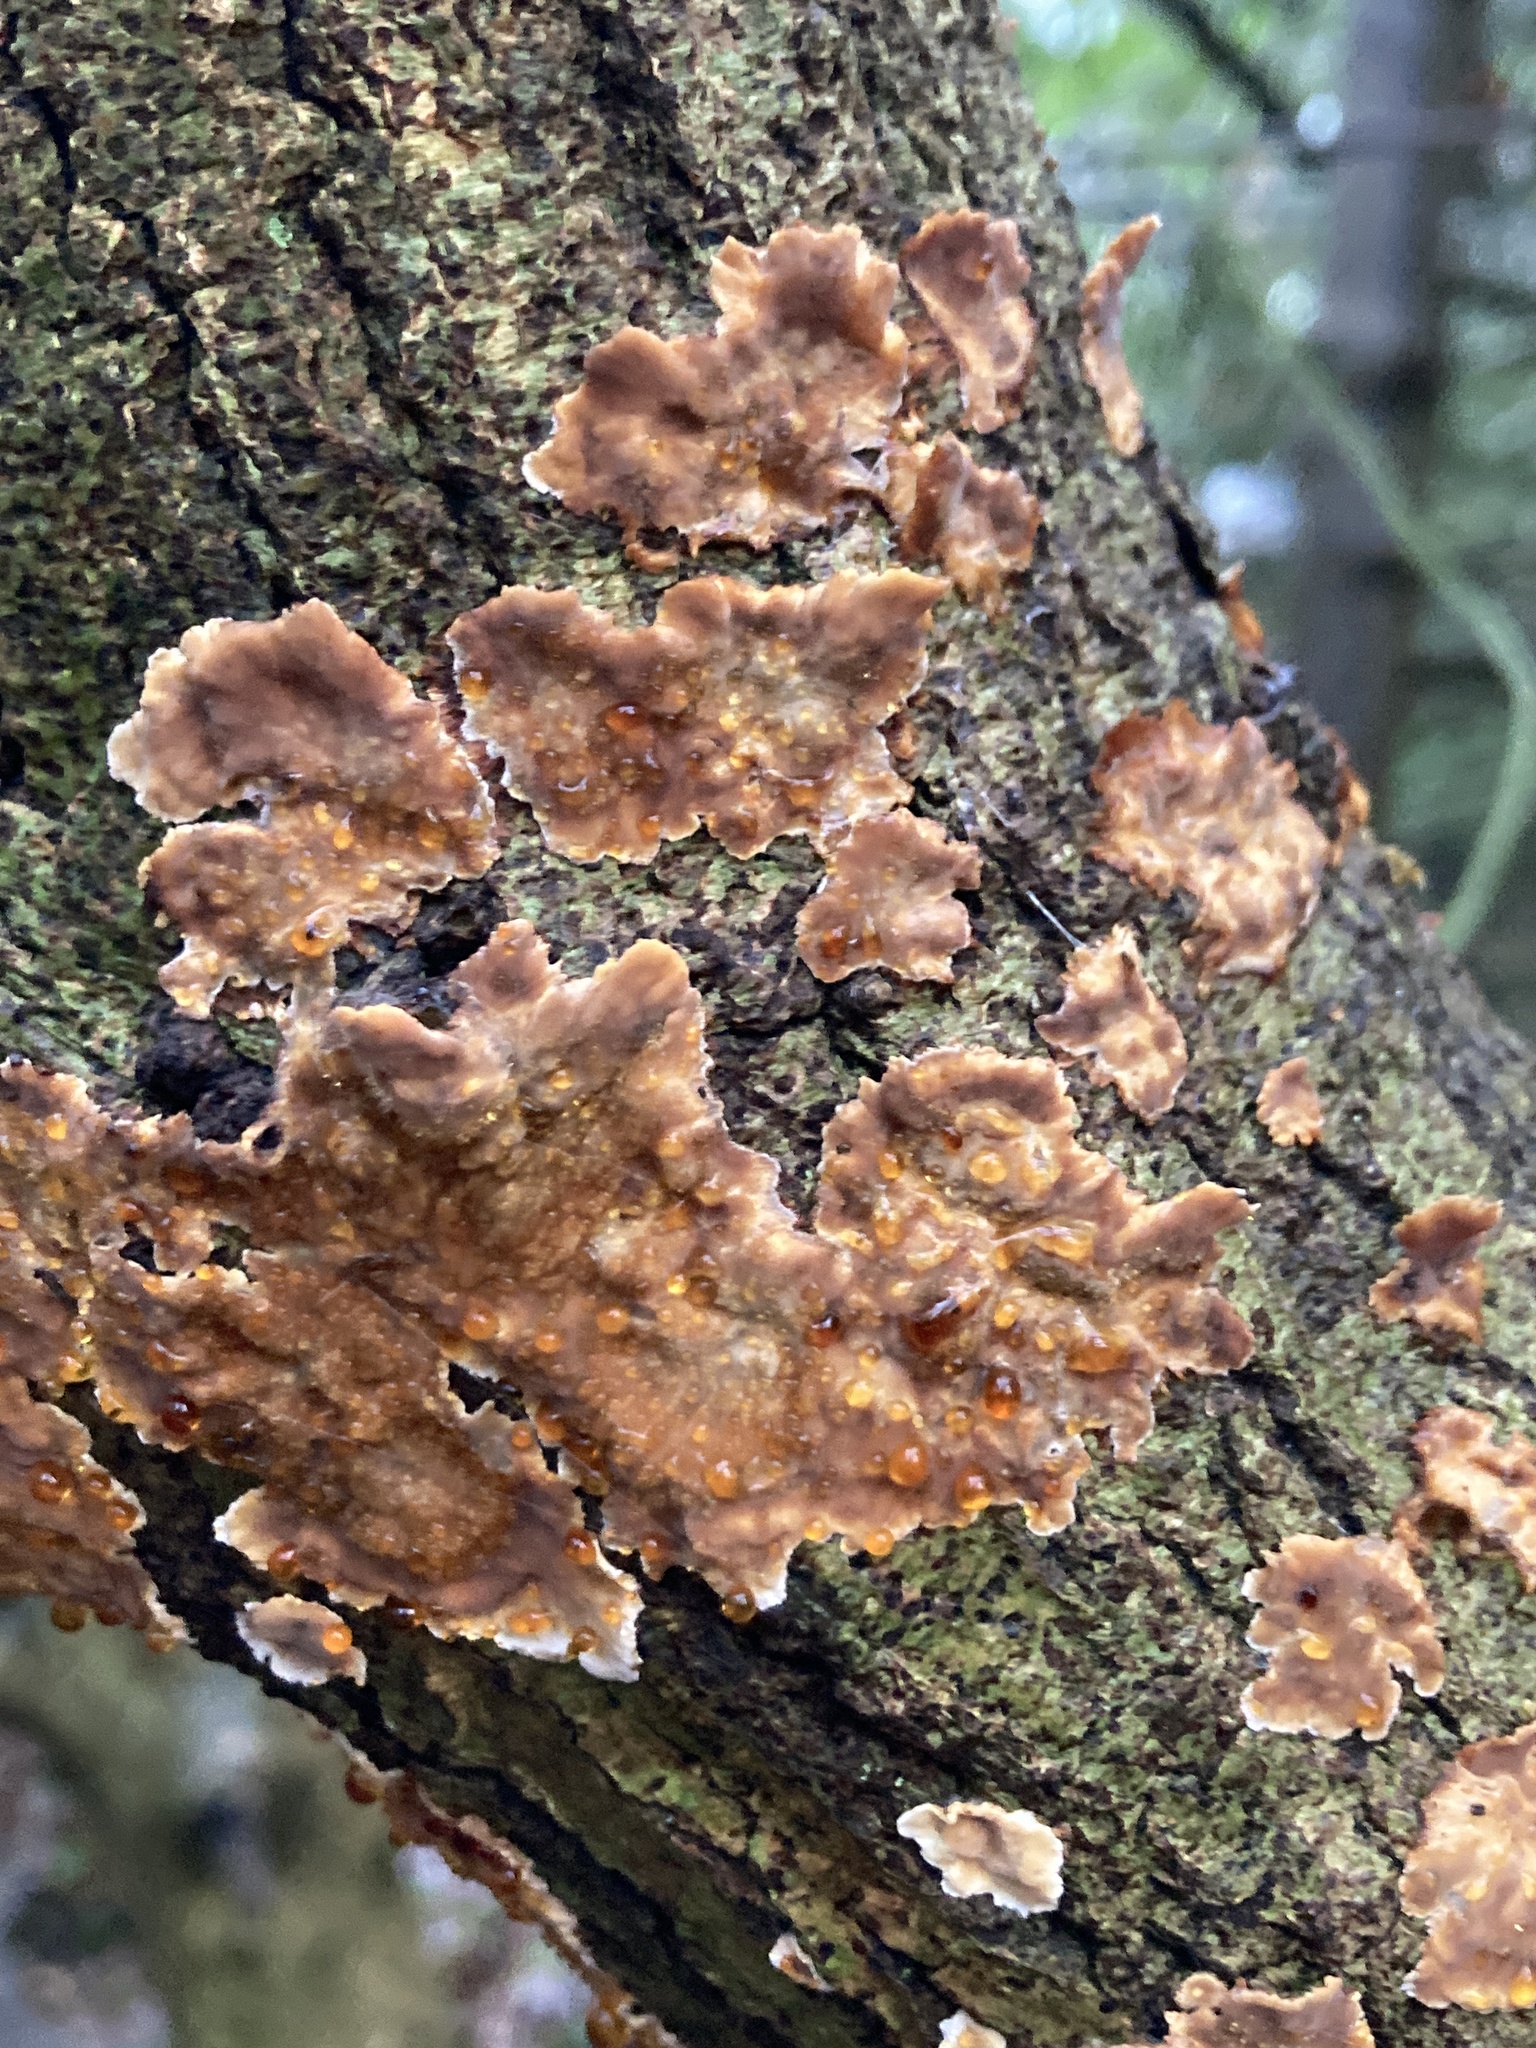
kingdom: Fungi
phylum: Basidiomycota
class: Agaricomycetes
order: Russulales
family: Stereaceae
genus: Stereum
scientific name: Stereum gausapatum
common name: Bleeding oak crust
